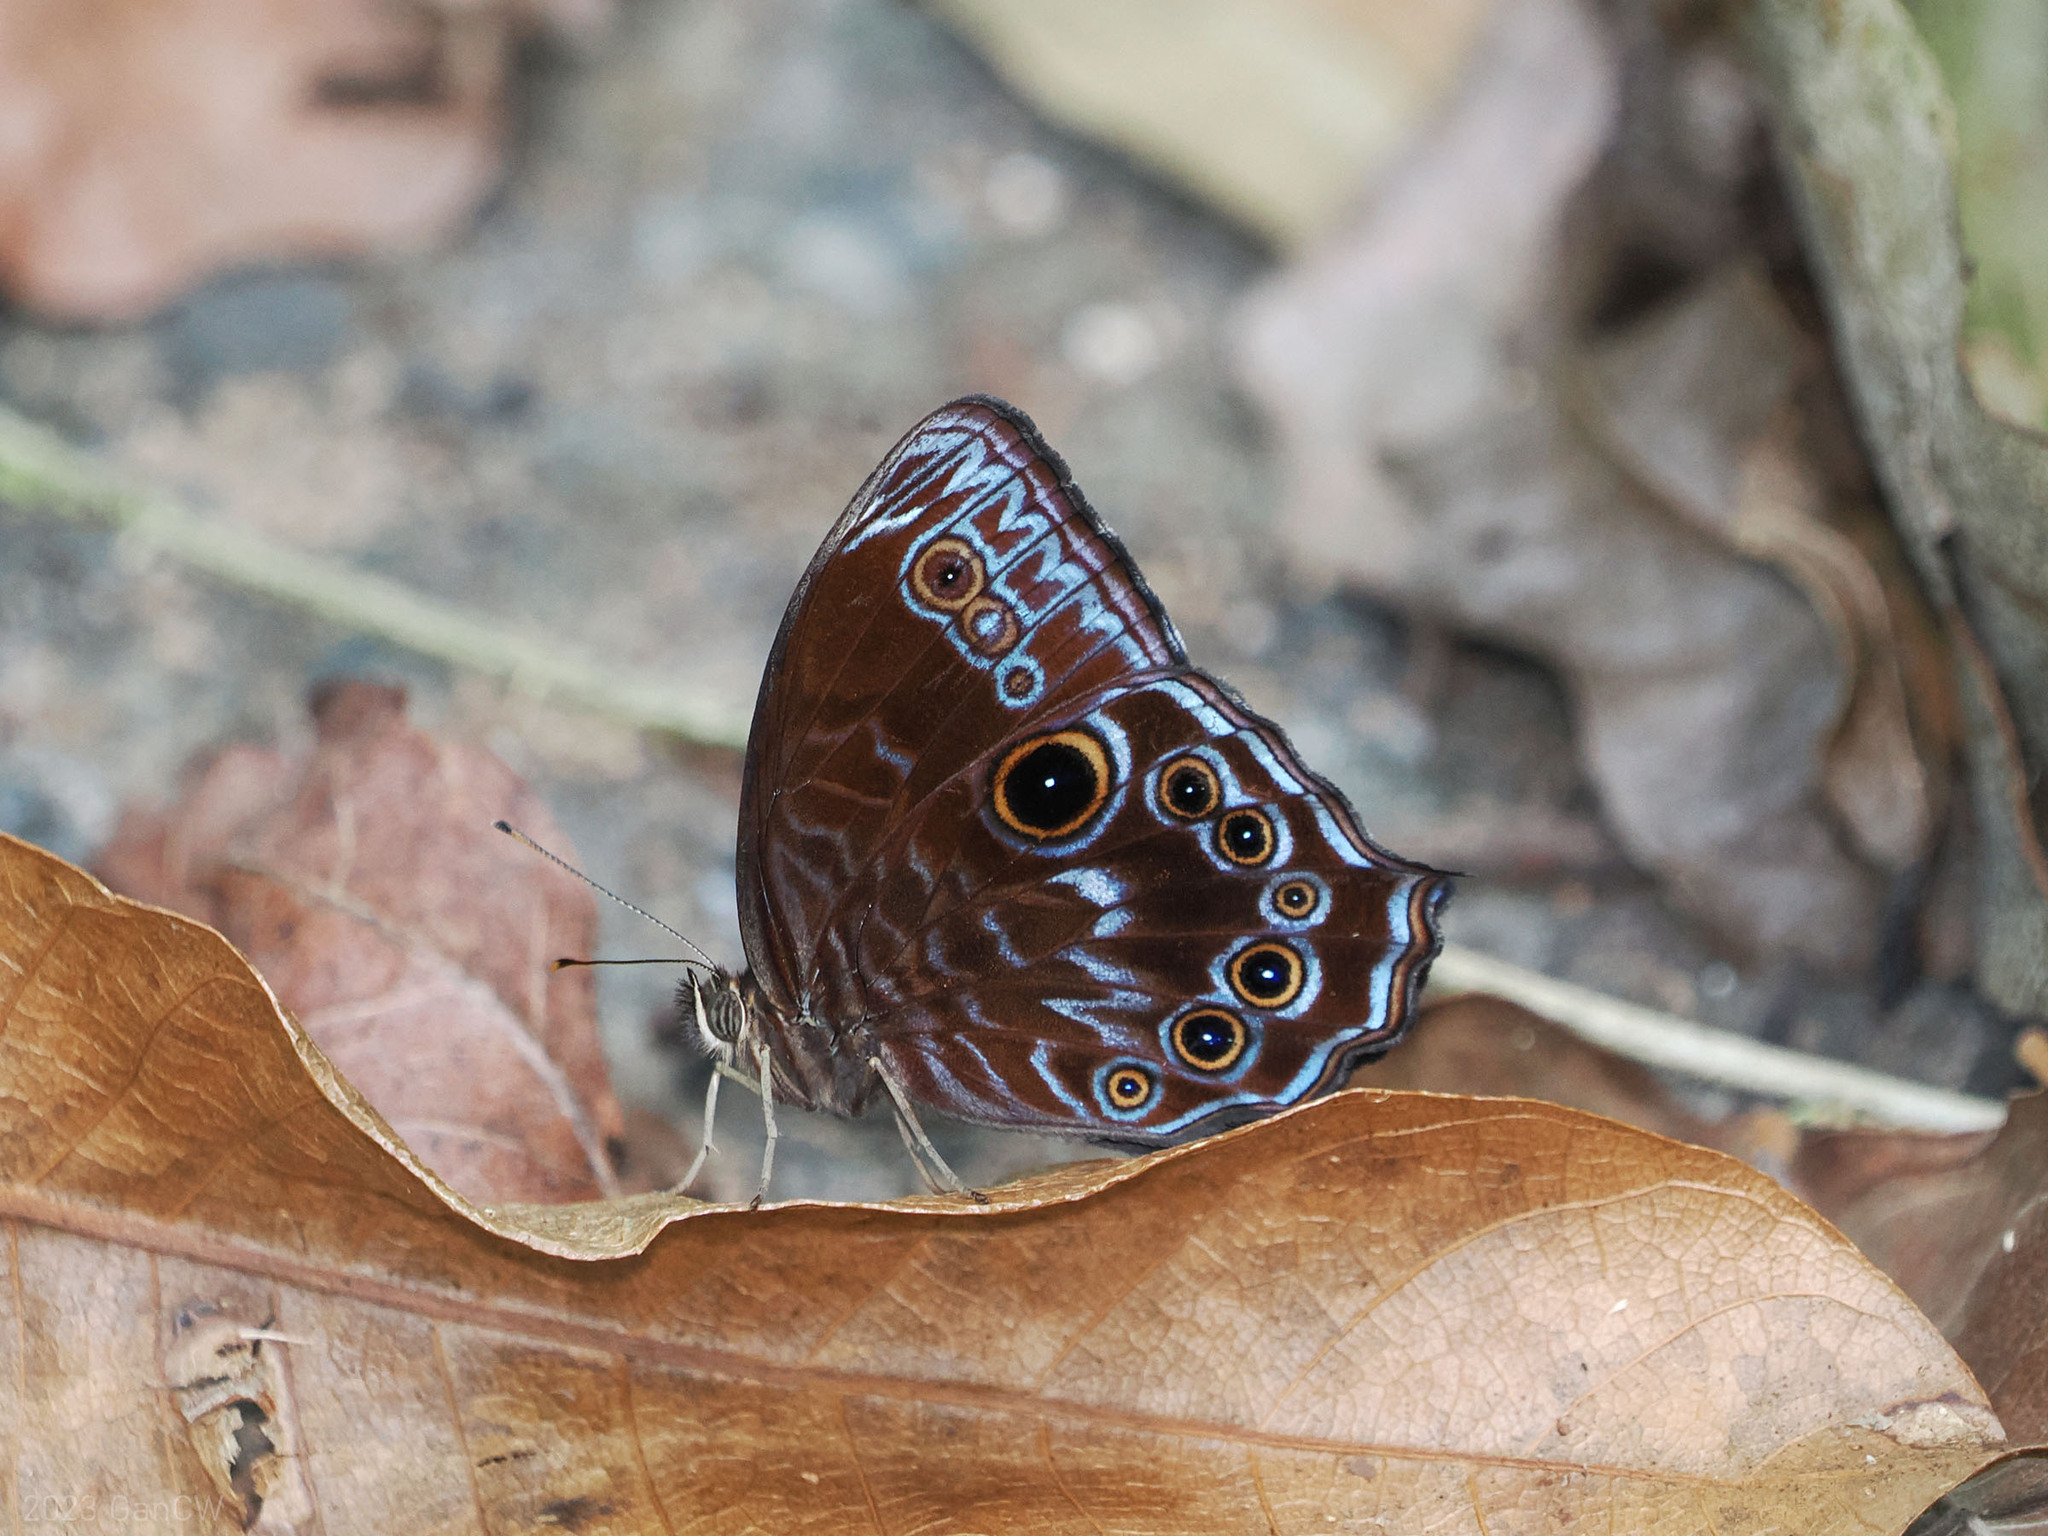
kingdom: Animalia
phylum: Arthropoda
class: Insecta
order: Lepidoptera
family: Nymphalidae
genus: Ptychandra
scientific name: Ptychandra lorquinii
